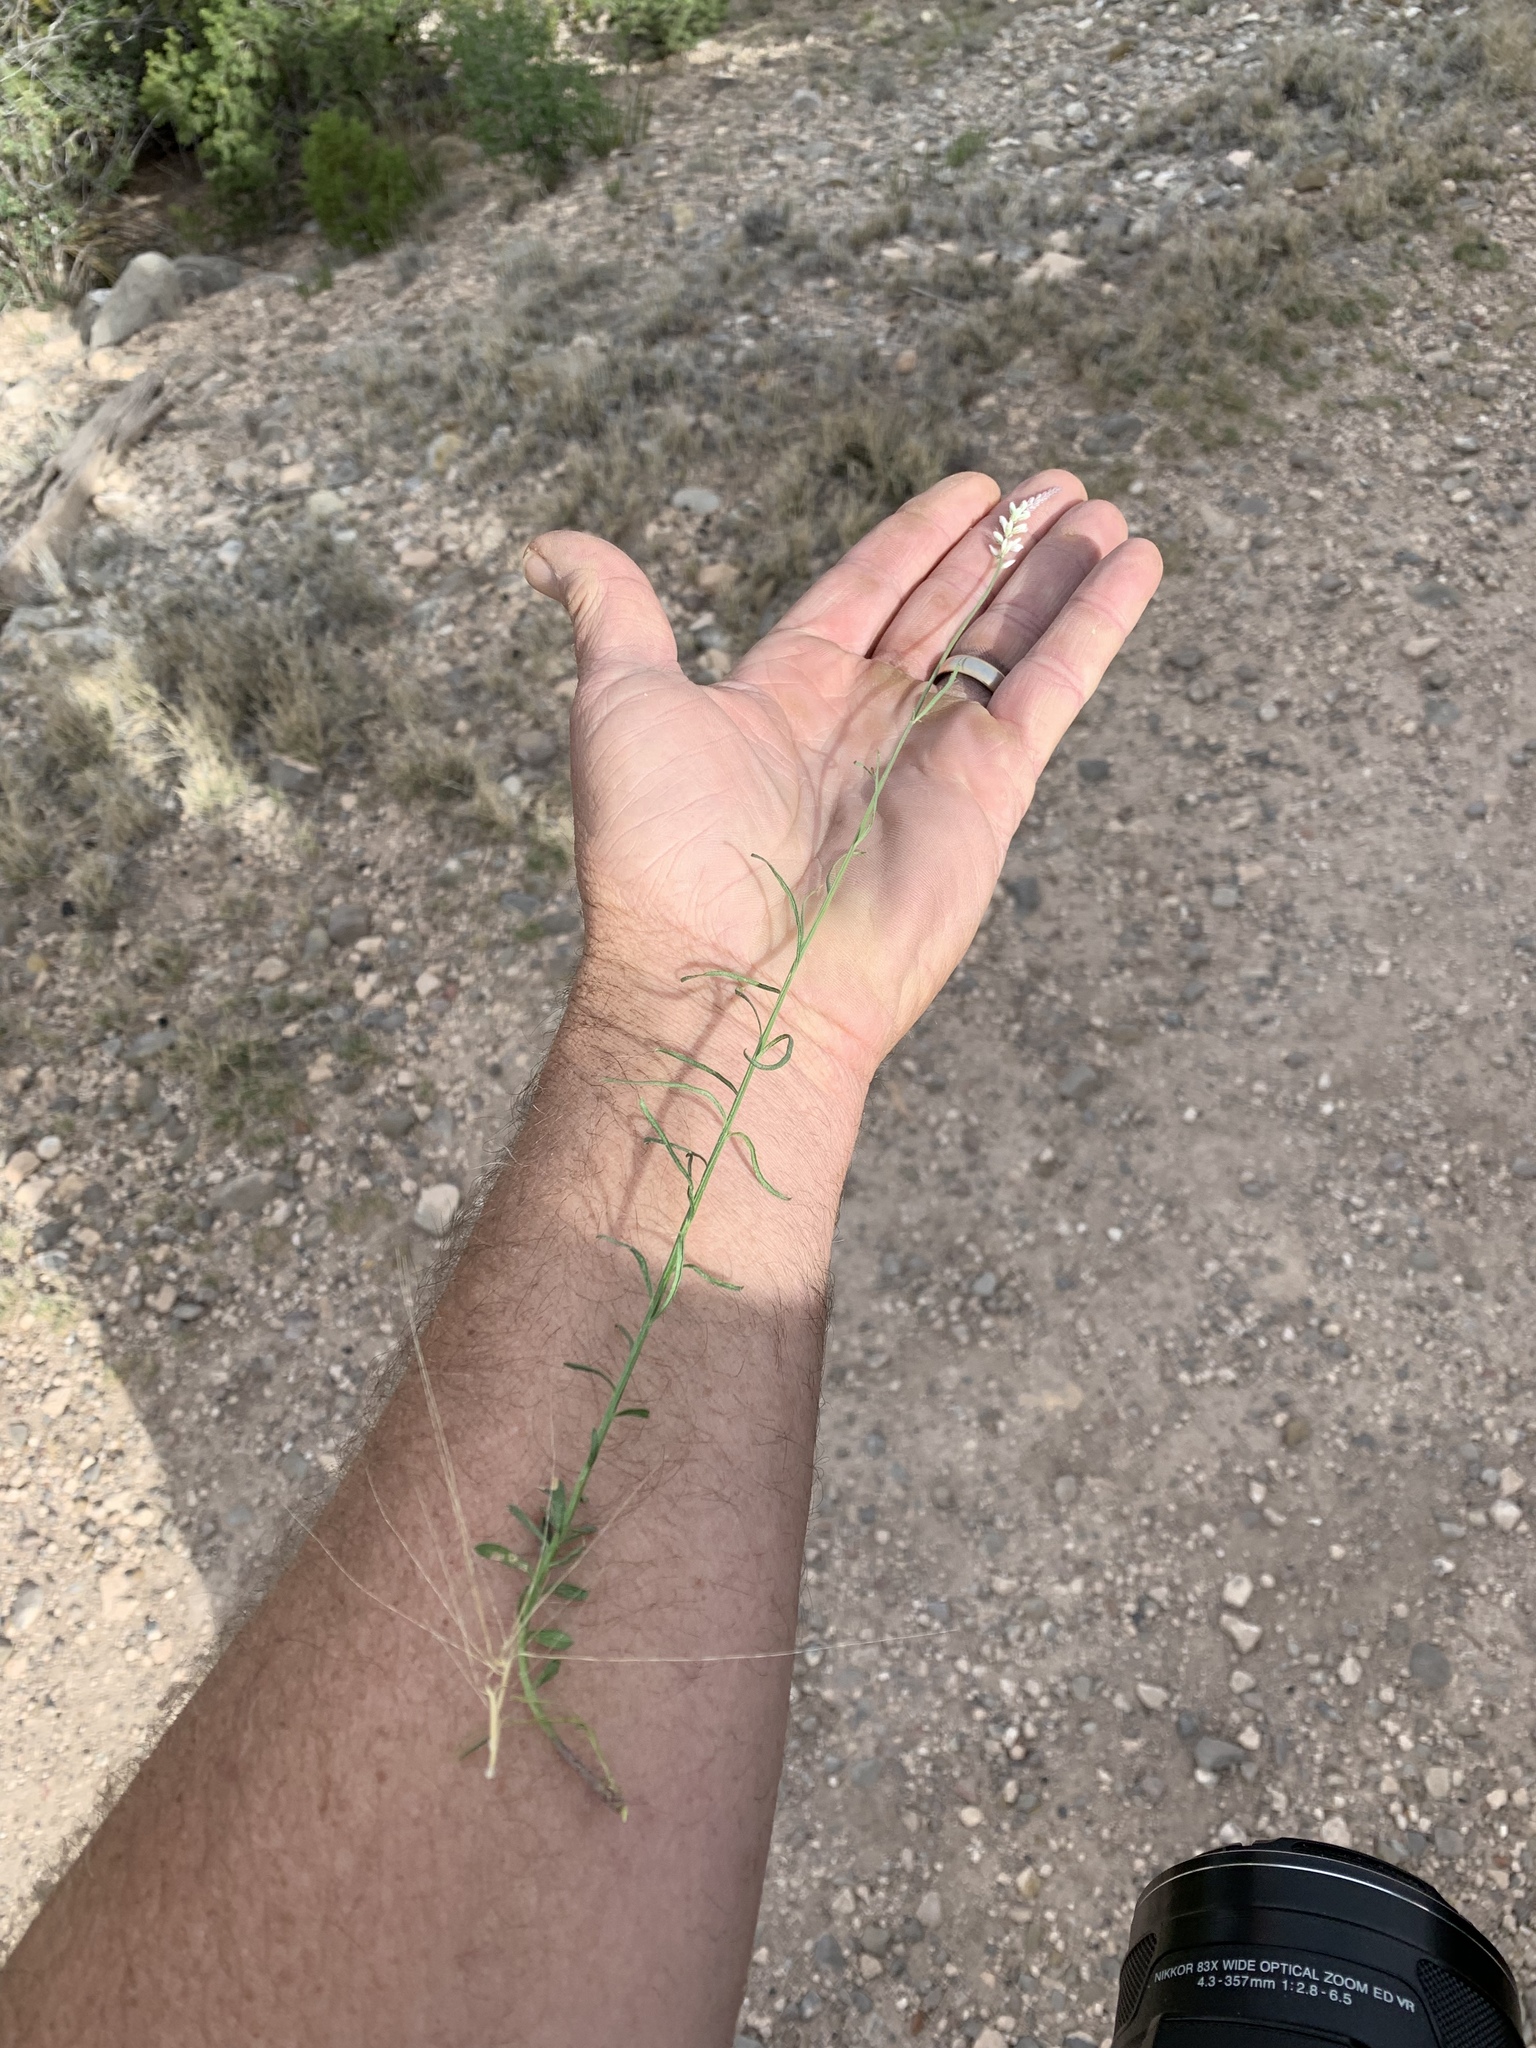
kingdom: Plantae
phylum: Tracheophyta
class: Magnoliopsida
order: Fabales
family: Polygalaceae
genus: Polygala
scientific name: Polygala alba
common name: White milkwort
